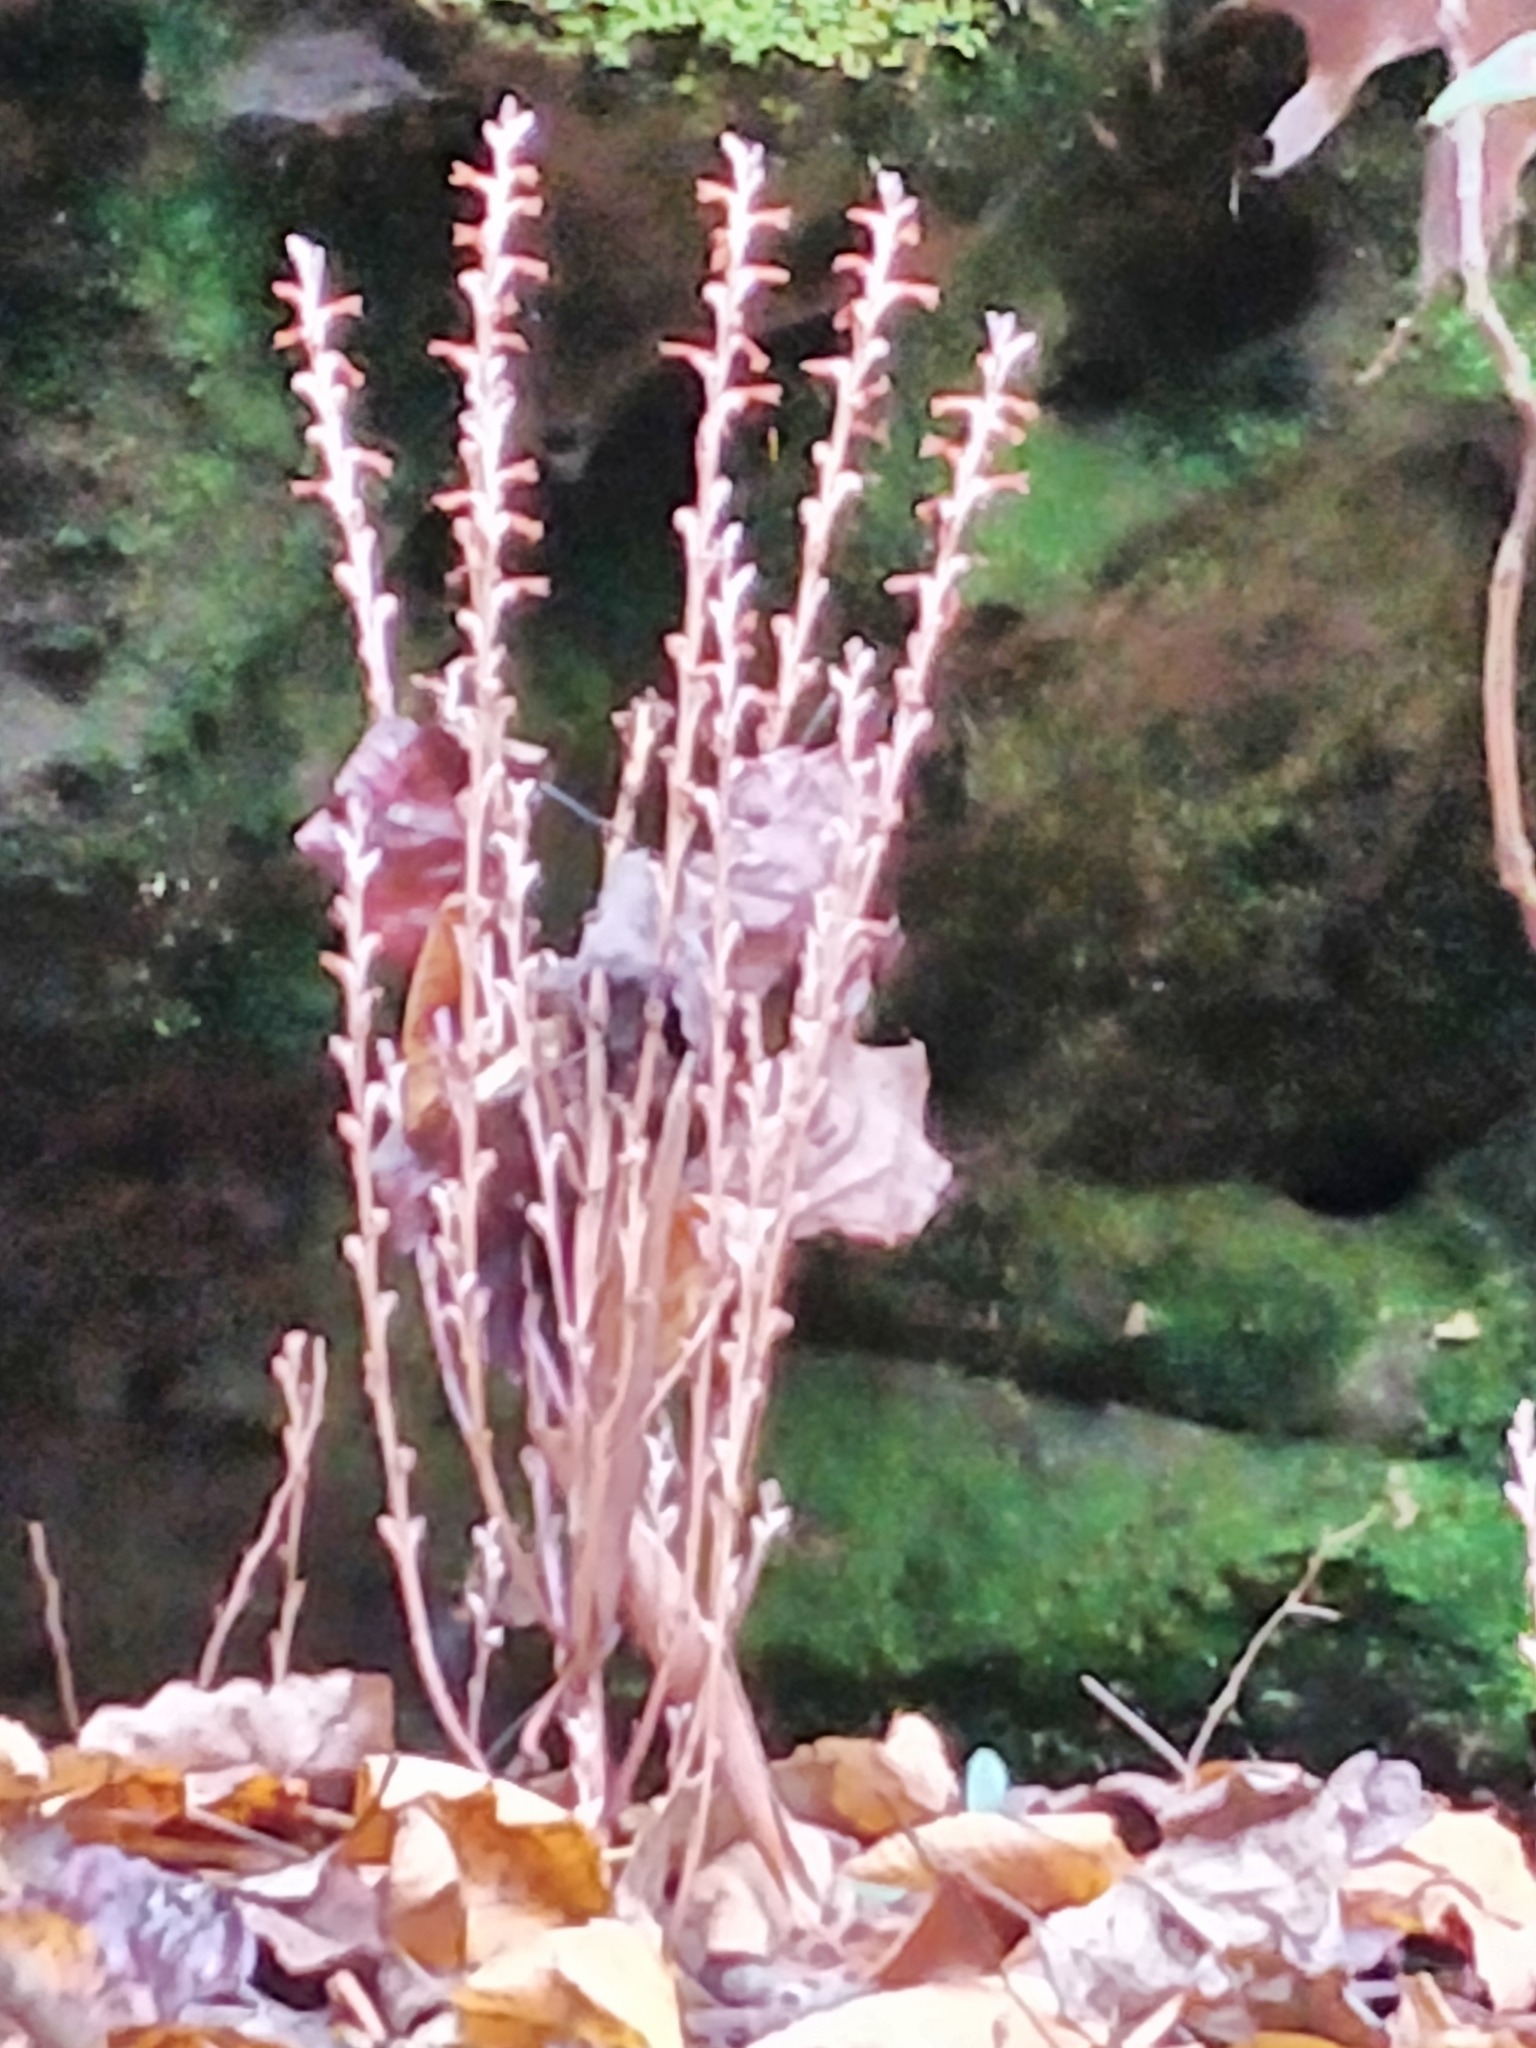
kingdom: Plantae
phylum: Tracheophyta
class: Magnoliopsida
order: Lamiales
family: Orobanchaceae
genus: Epifagus
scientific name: Epifagus virginiana
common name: Beechdrops
